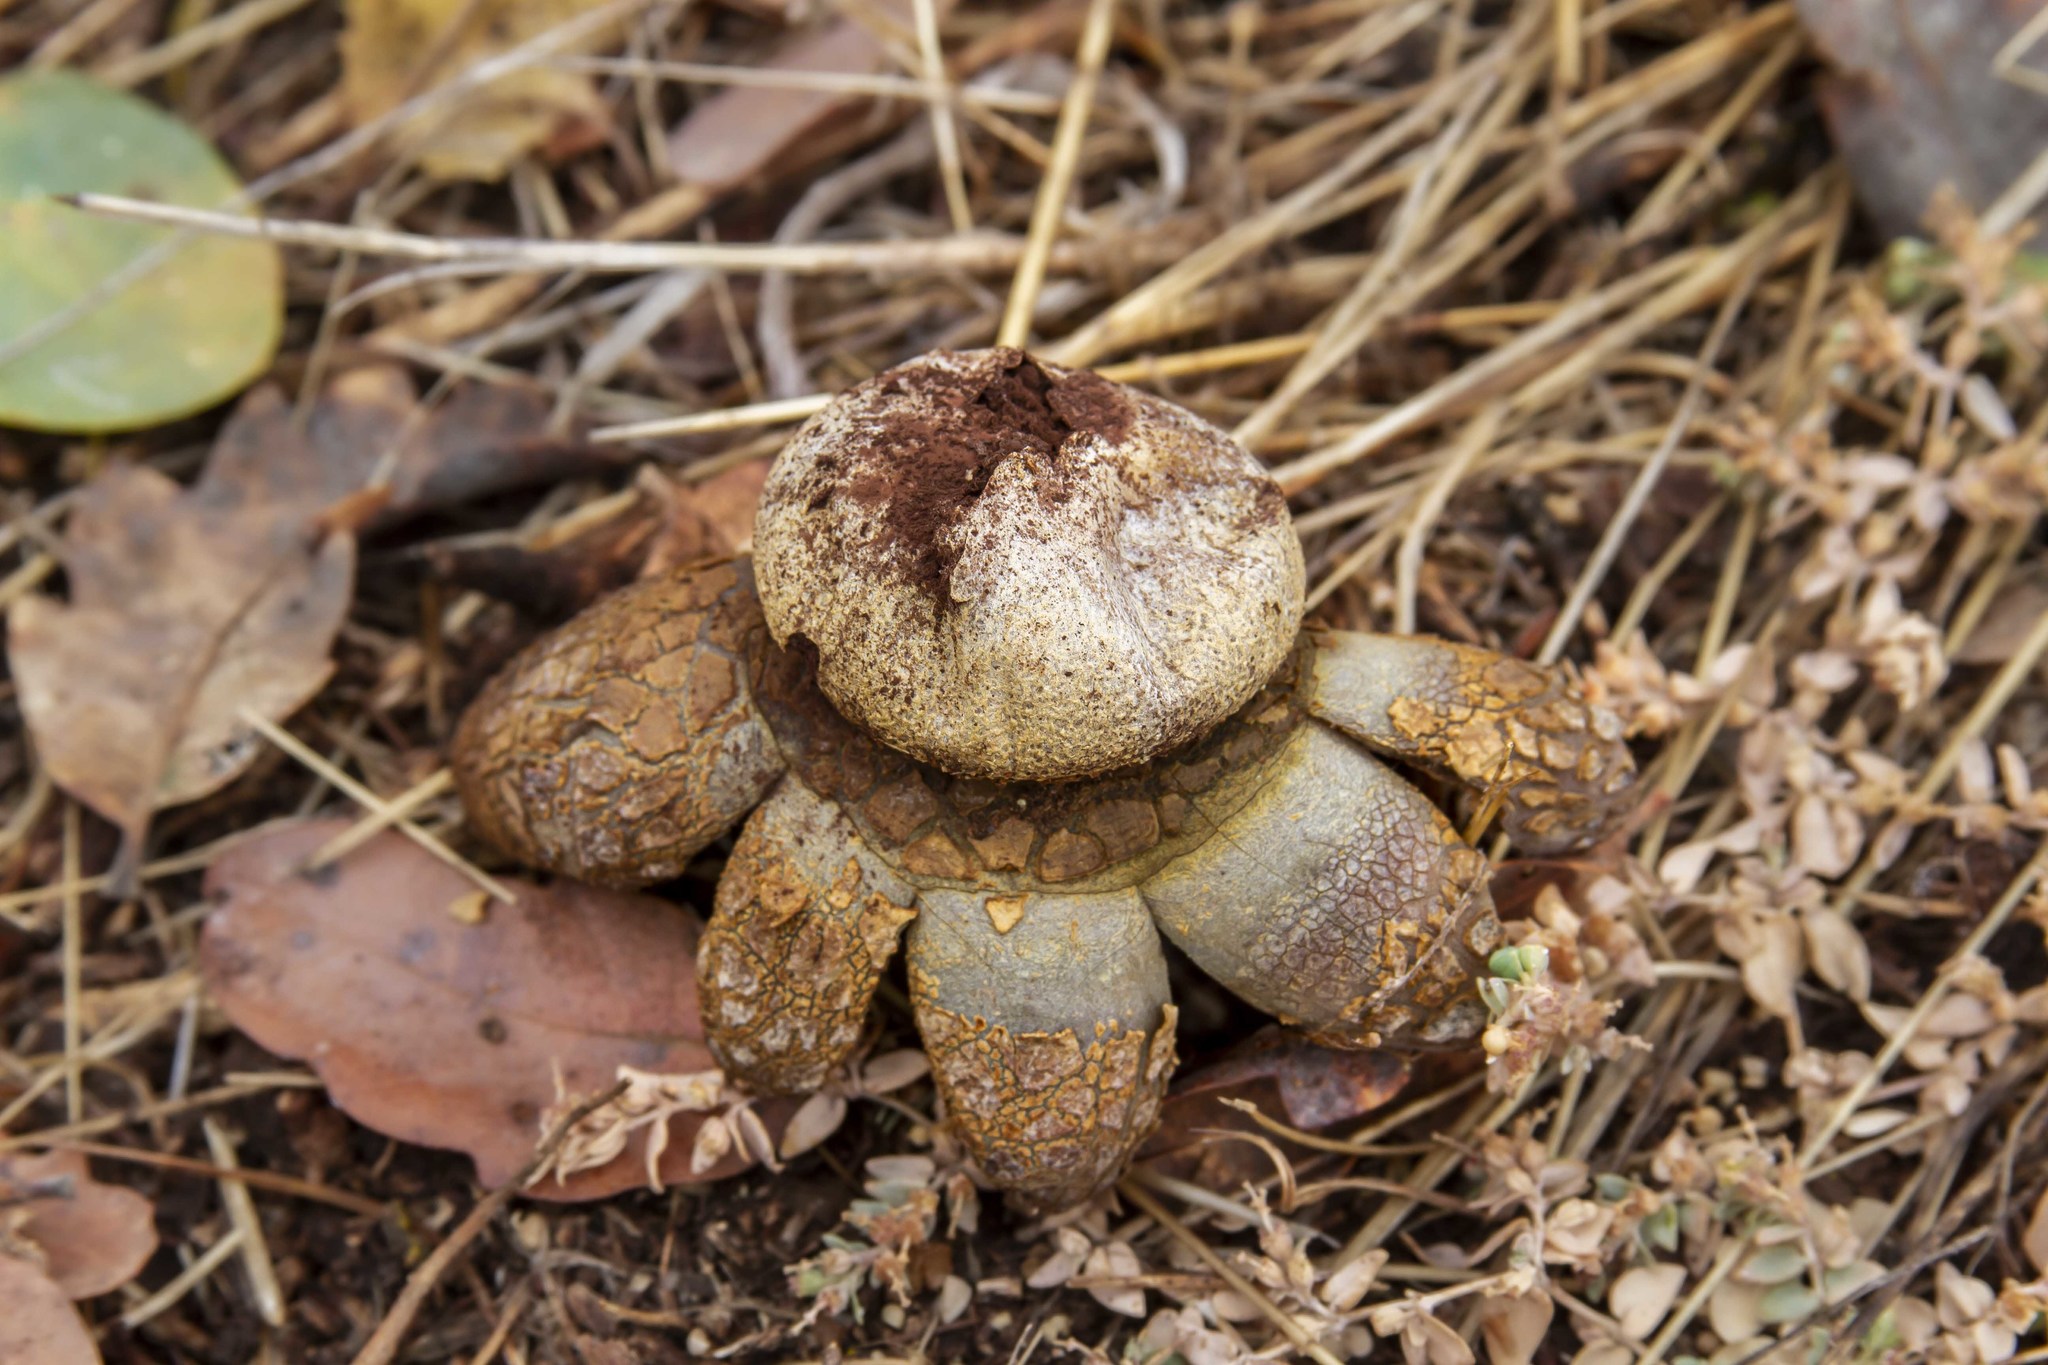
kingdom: Fungi
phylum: Basidiomycota
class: Agaricomycetes
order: Boletales
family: Diplocystidiaceae
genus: Astraeus
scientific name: Astraeus hygrometricus
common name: Barometer earthstar
